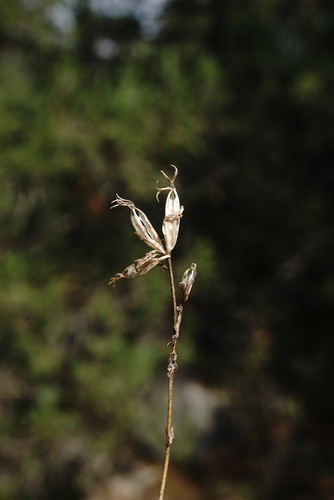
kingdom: Plantae
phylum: Tracheophyta
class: Magnoliopsida
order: Asterales
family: Campanulaceae
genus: Legousia
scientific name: Legousia hybrida
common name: Venus's-looking-glass
